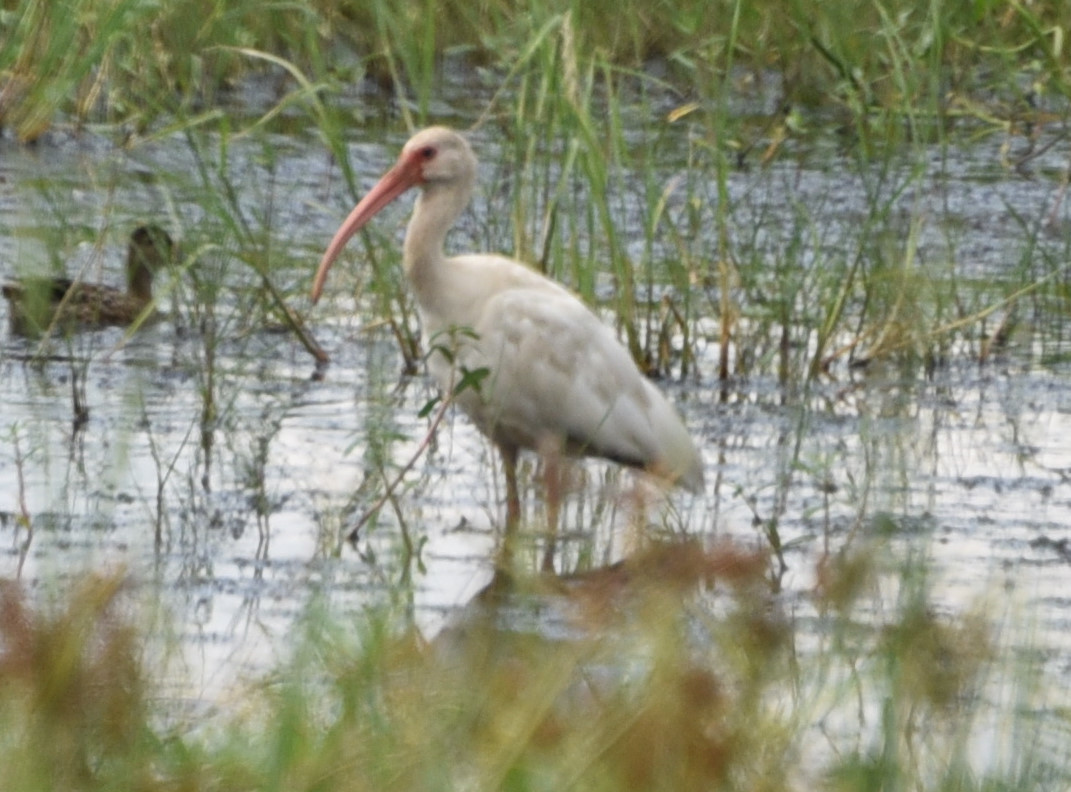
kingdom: Animalia
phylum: Chordata
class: Aves
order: Pelecaniformes
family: Threskiornithidae
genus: Eudocimus
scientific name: Eudocimus albus
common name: White ibis
